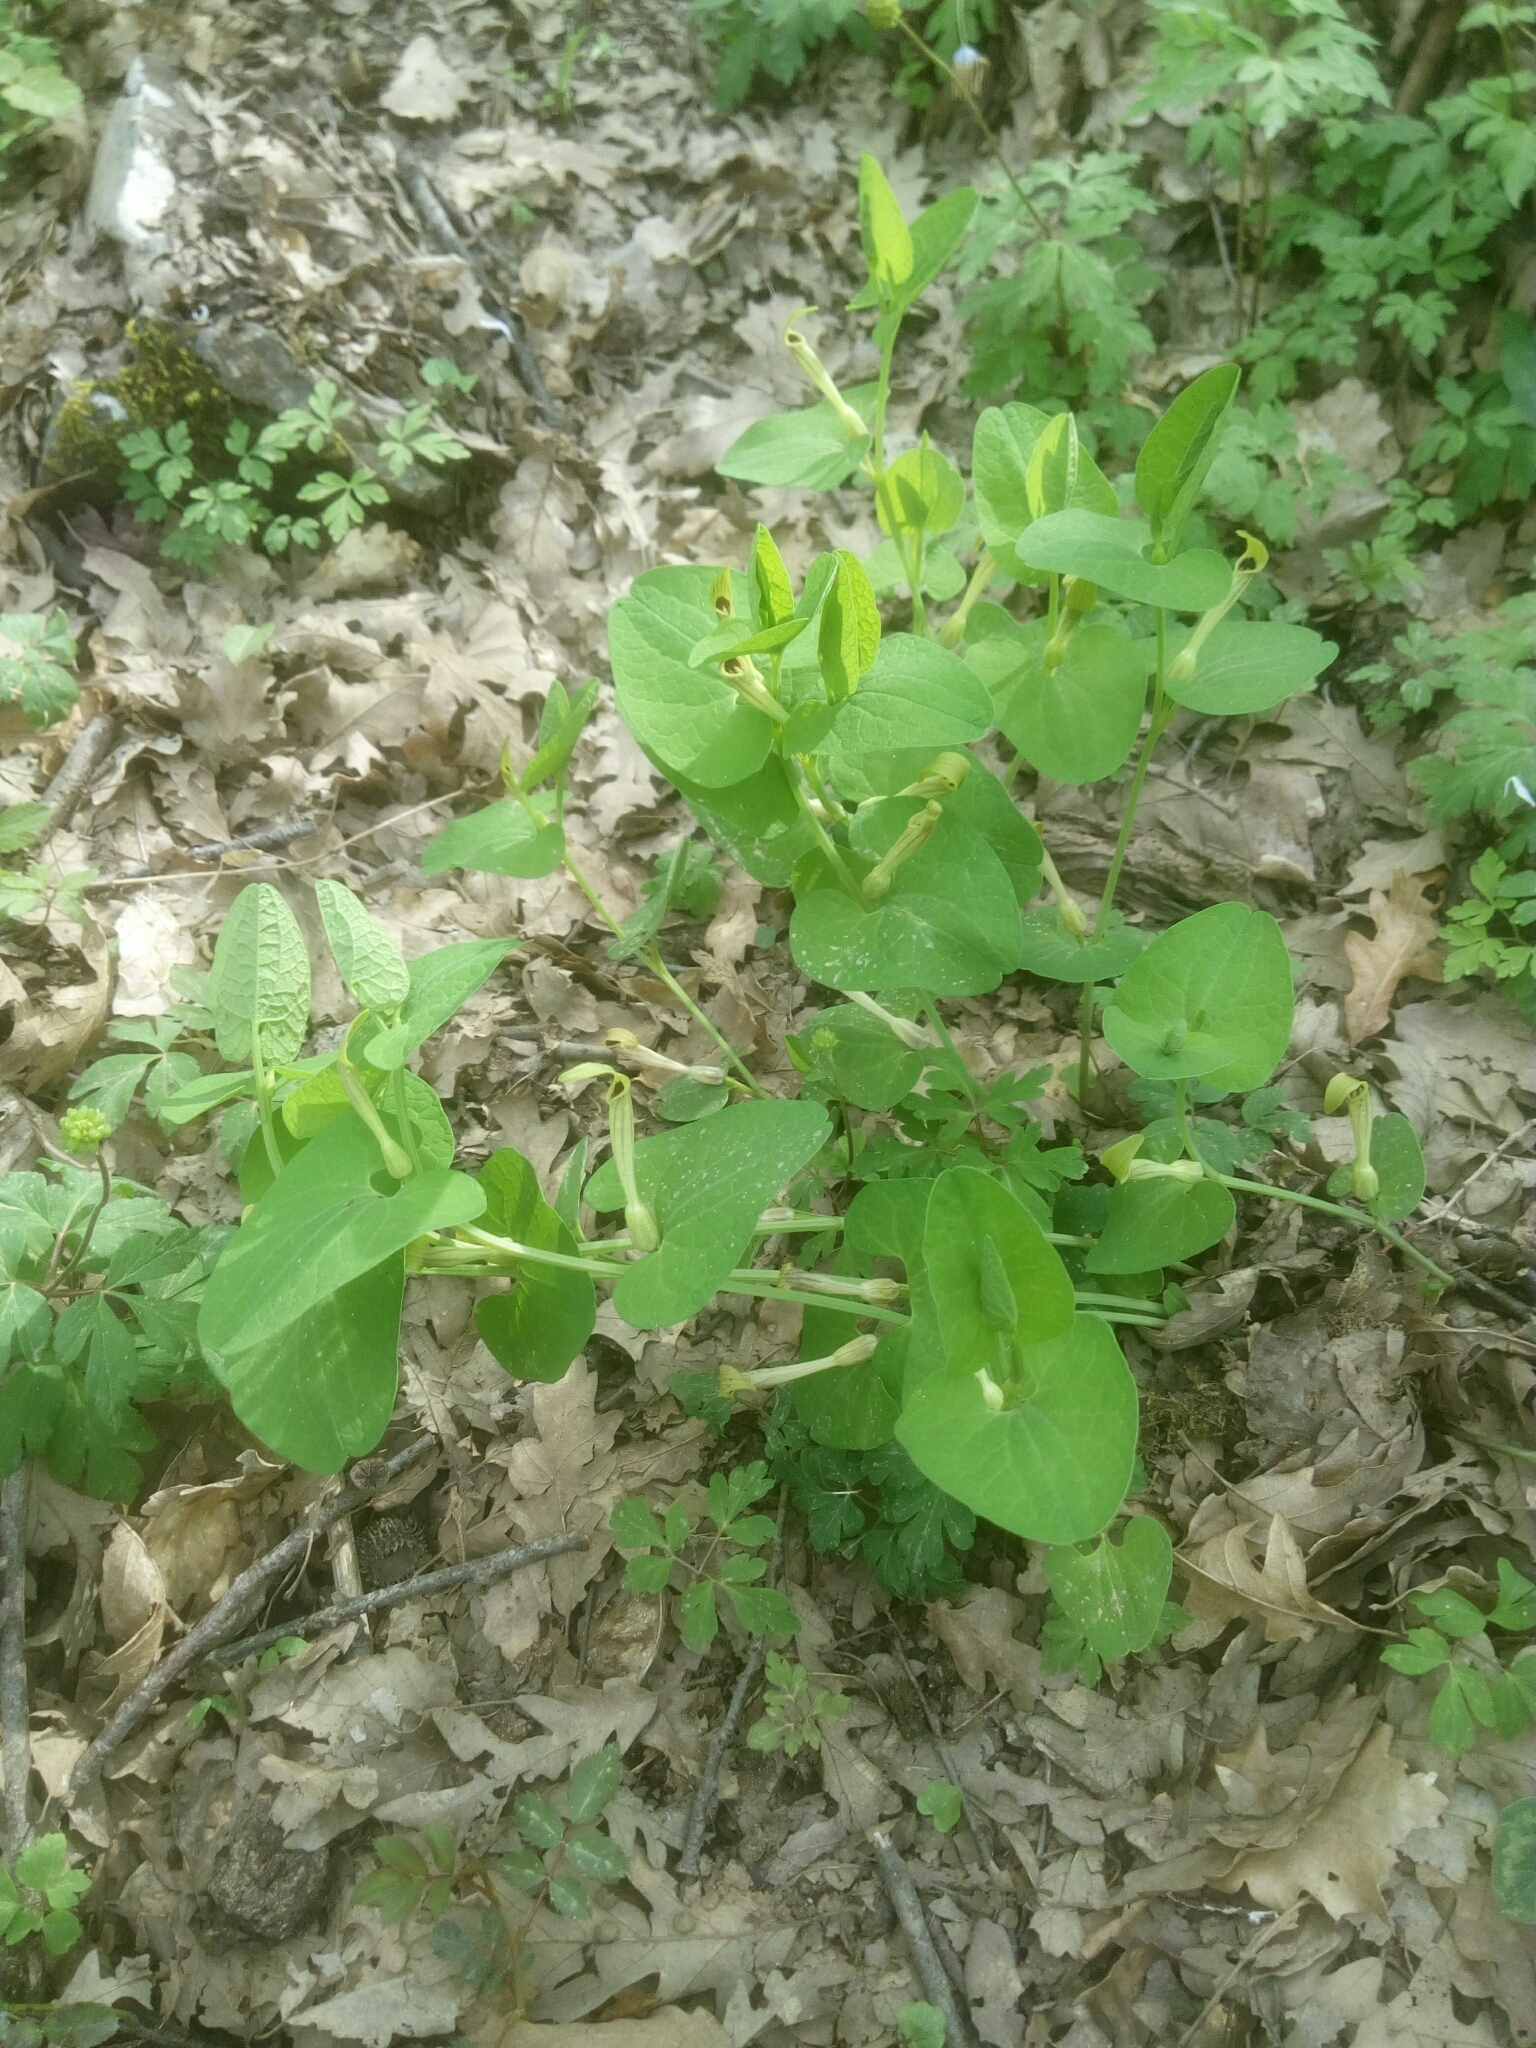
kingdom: Plantae
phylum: Tracheophyta
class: Magnoliopsida
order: Piperales
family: Aristolochiaceae
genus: Aristolochia
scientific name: Aristolochia lutea
